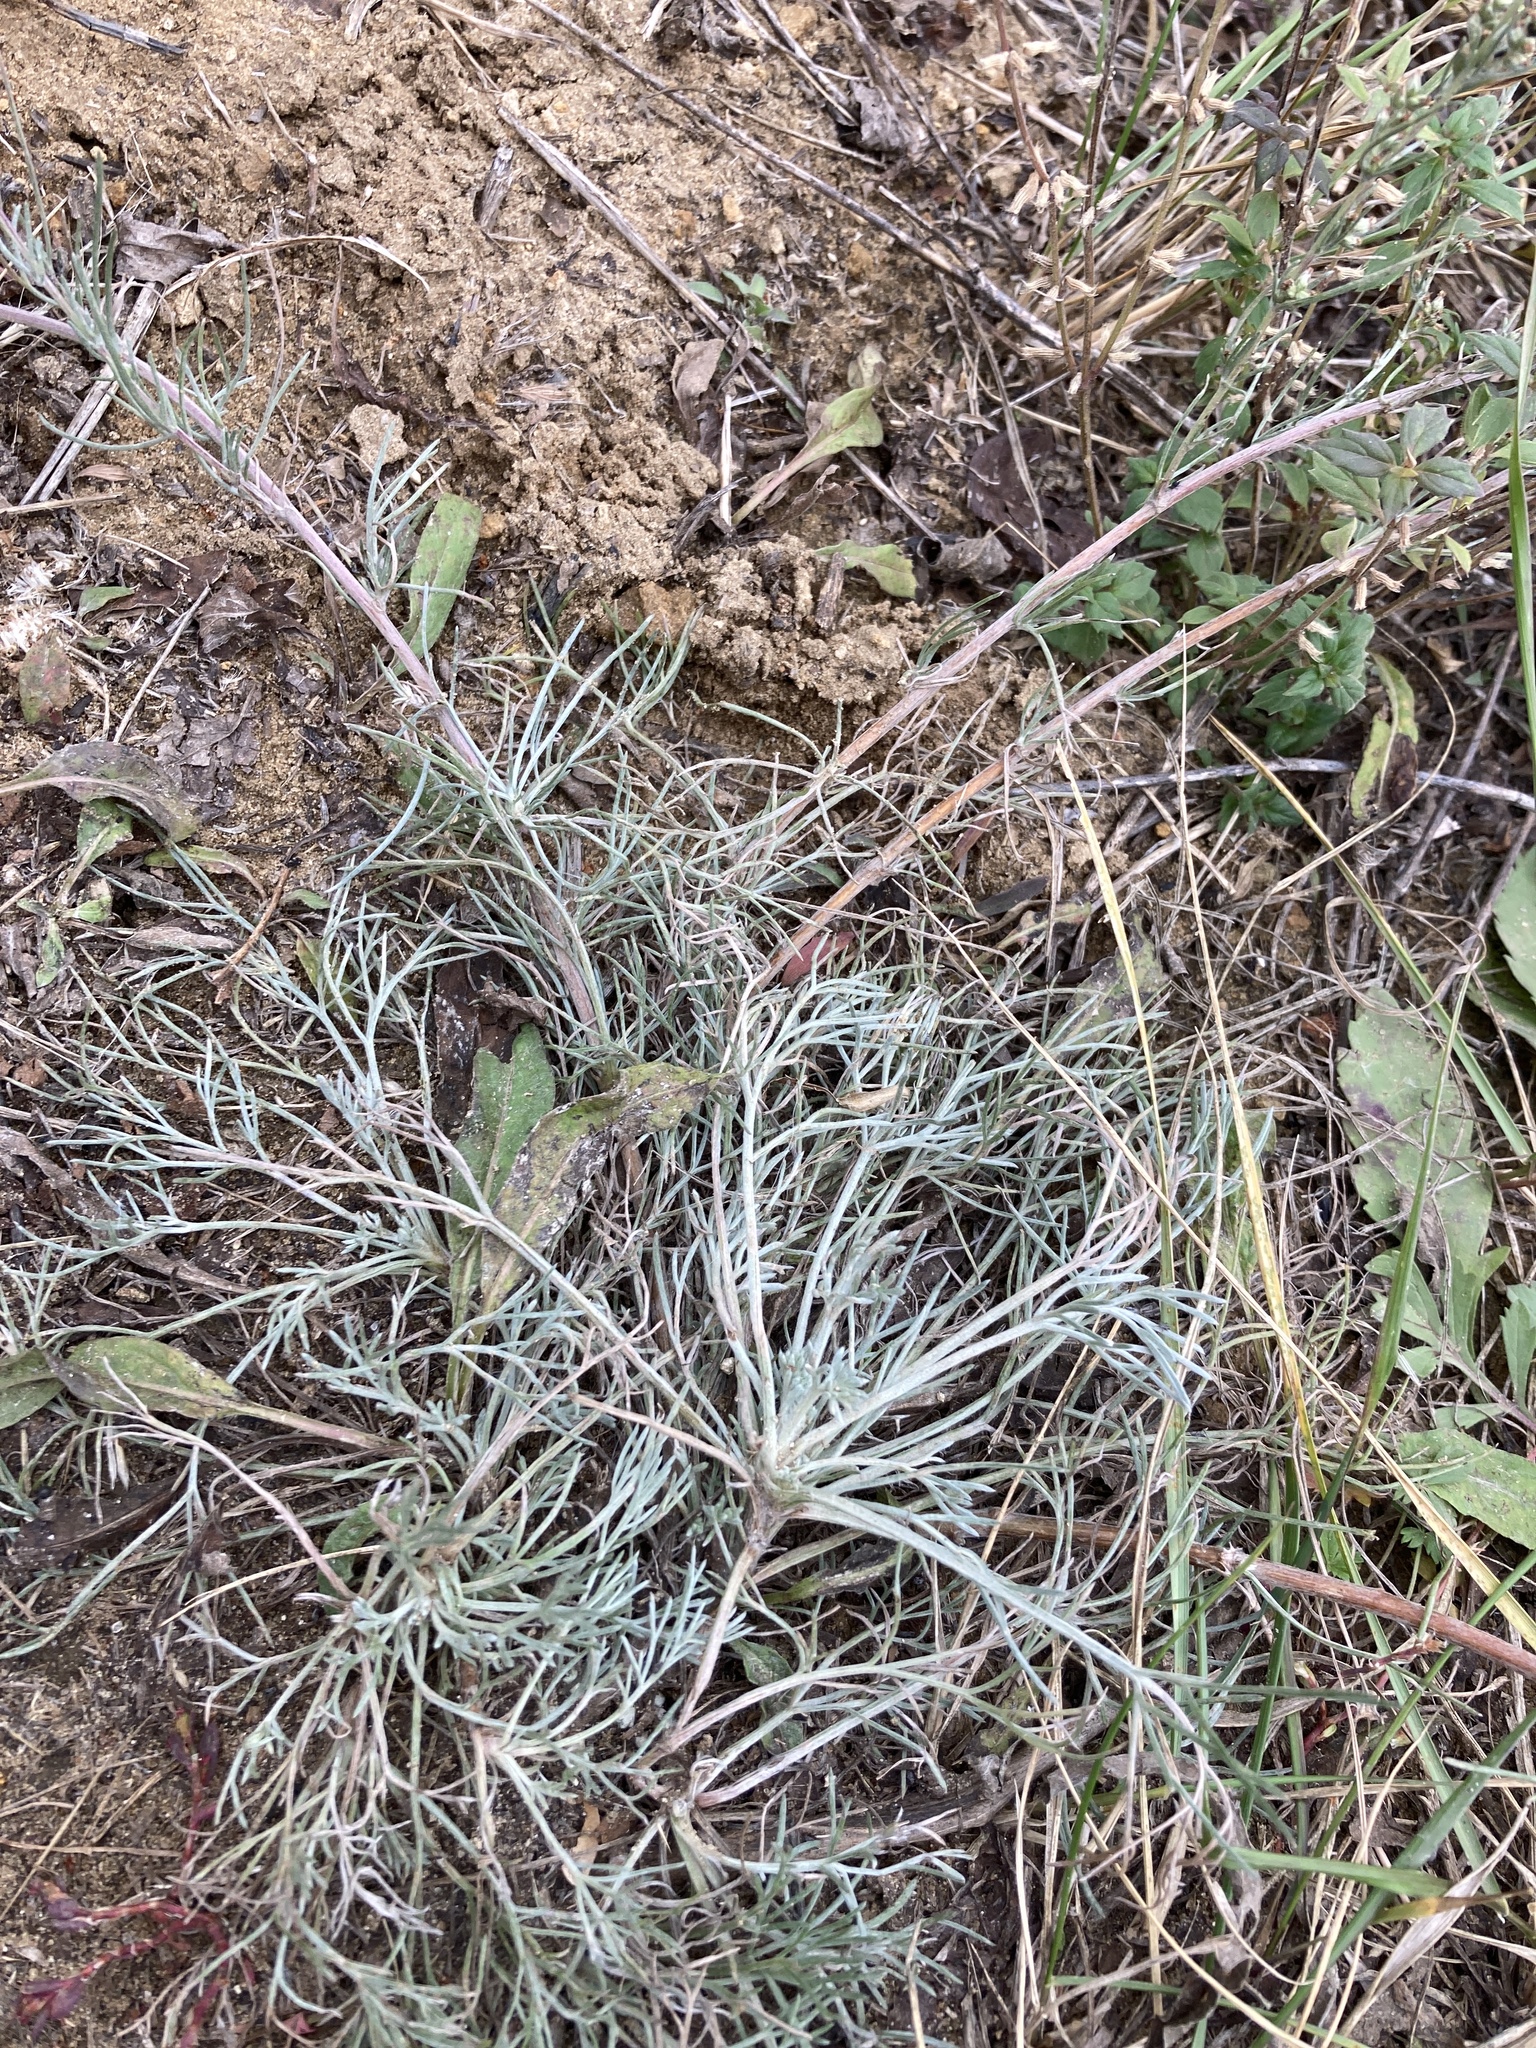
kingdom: Plantae
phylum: Tracheophyta
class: Magnoliopsida
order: Asterales
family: Asteraceae
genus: Artemisia
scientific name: Artemisia campestris
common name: Field wormwood
